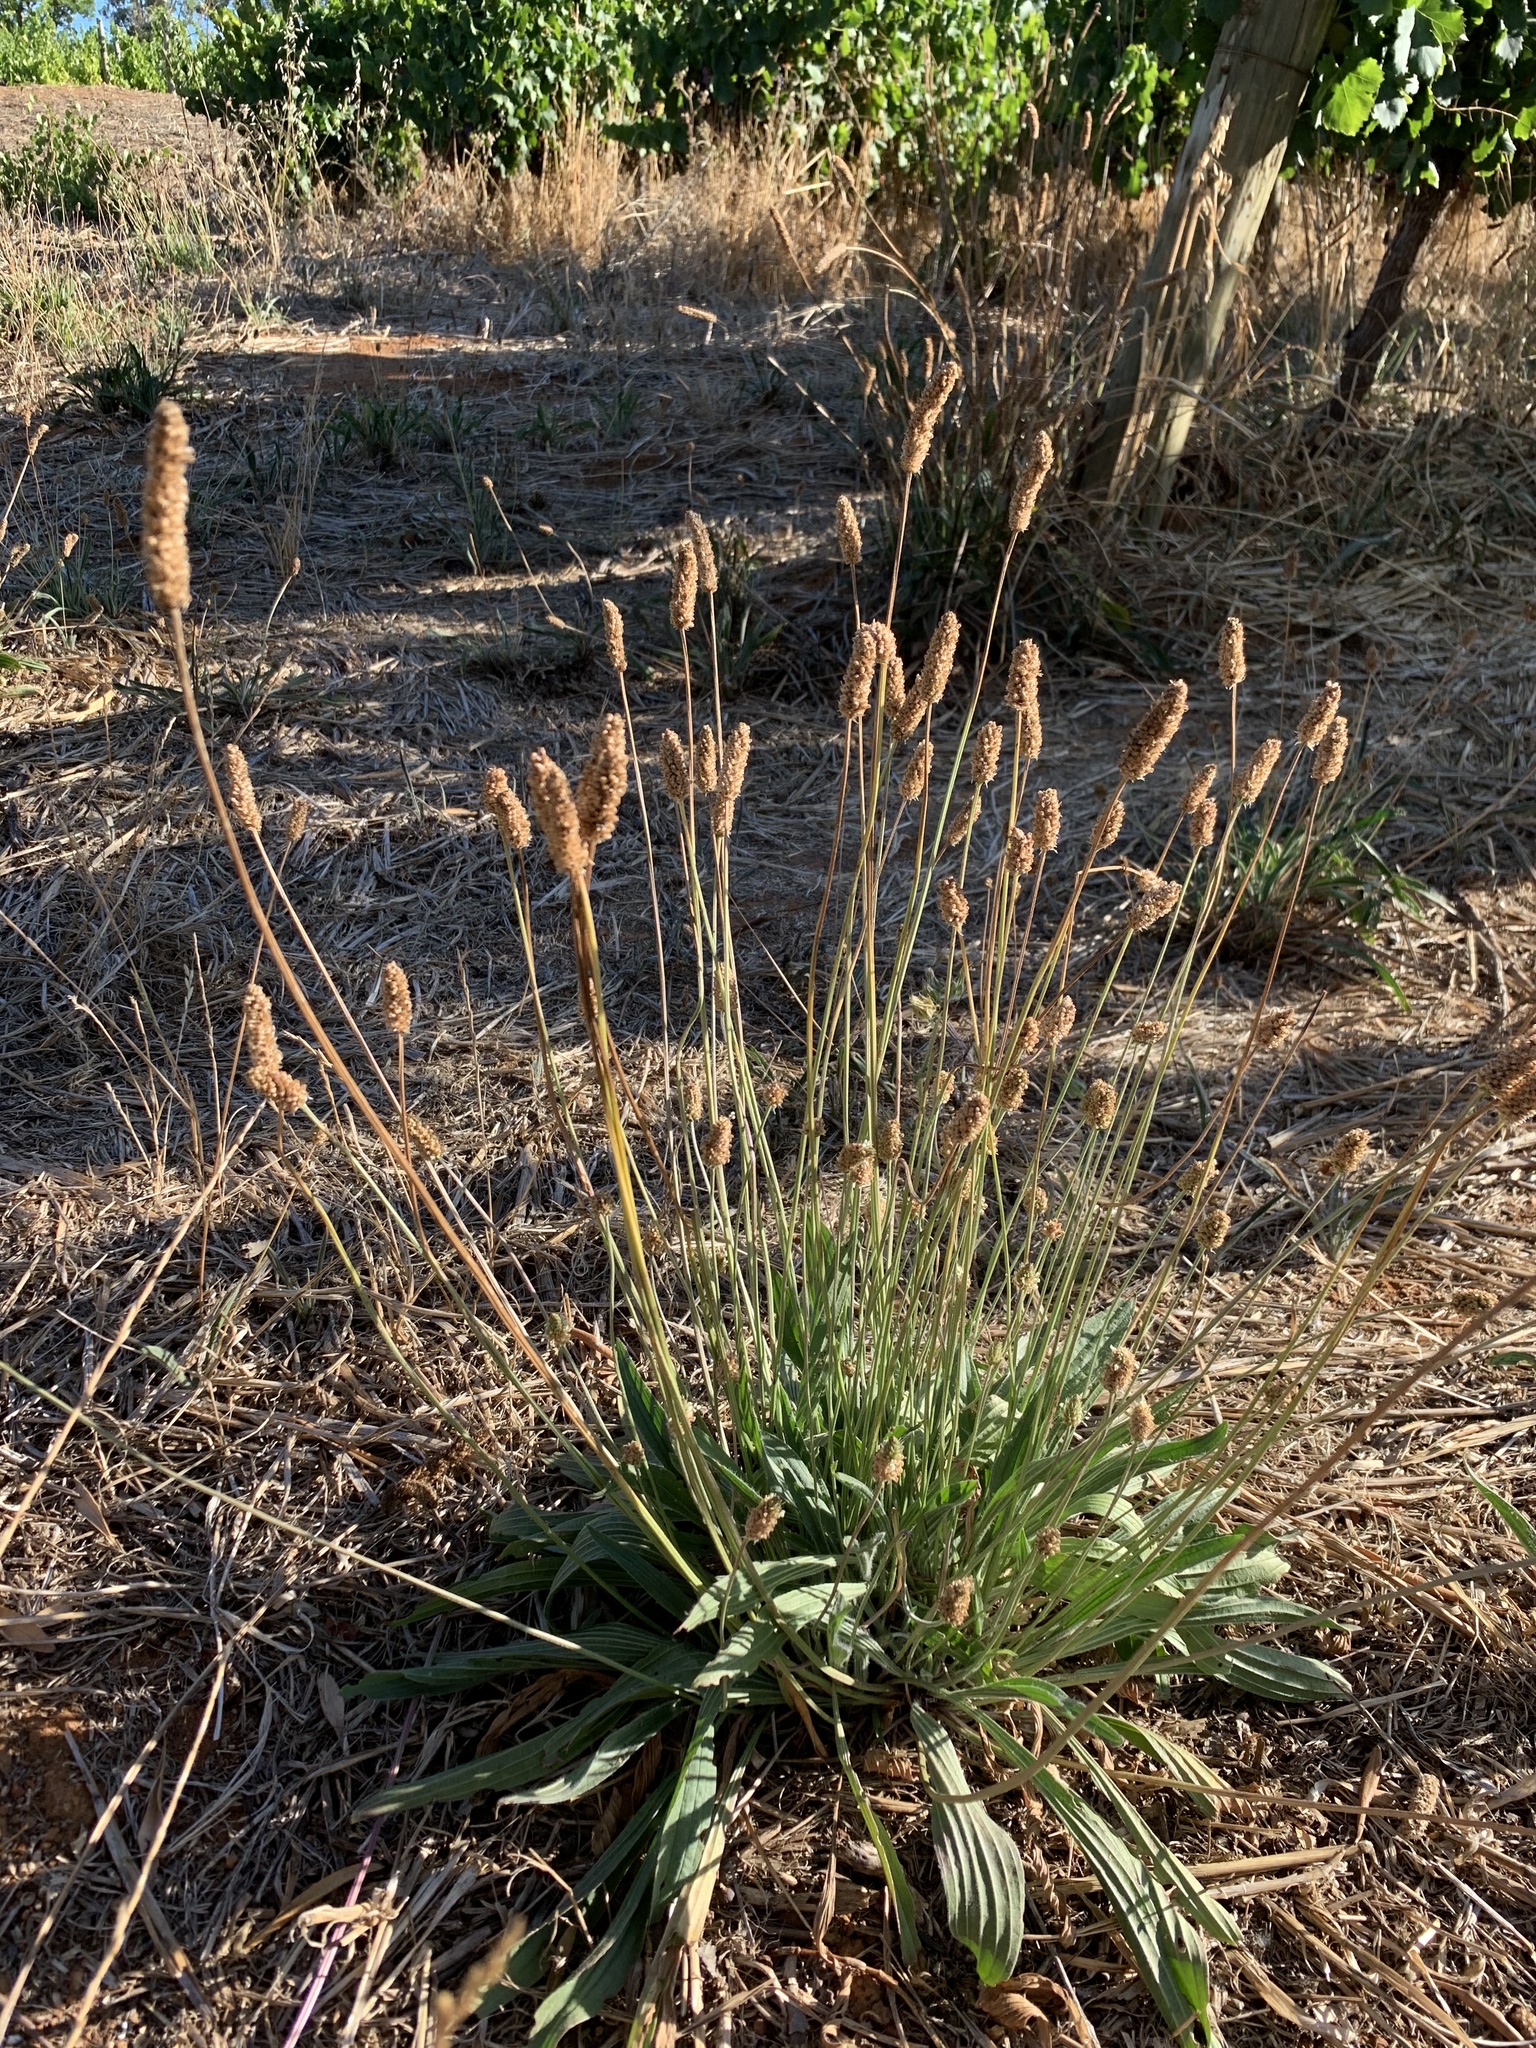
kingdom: Plantae
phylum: Tracheophyta
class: Magnoliopsida
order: Lamiales
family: Plantaginaceae
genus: Plantago
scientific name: Plantago lanceolata
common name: Ribwort plantain
